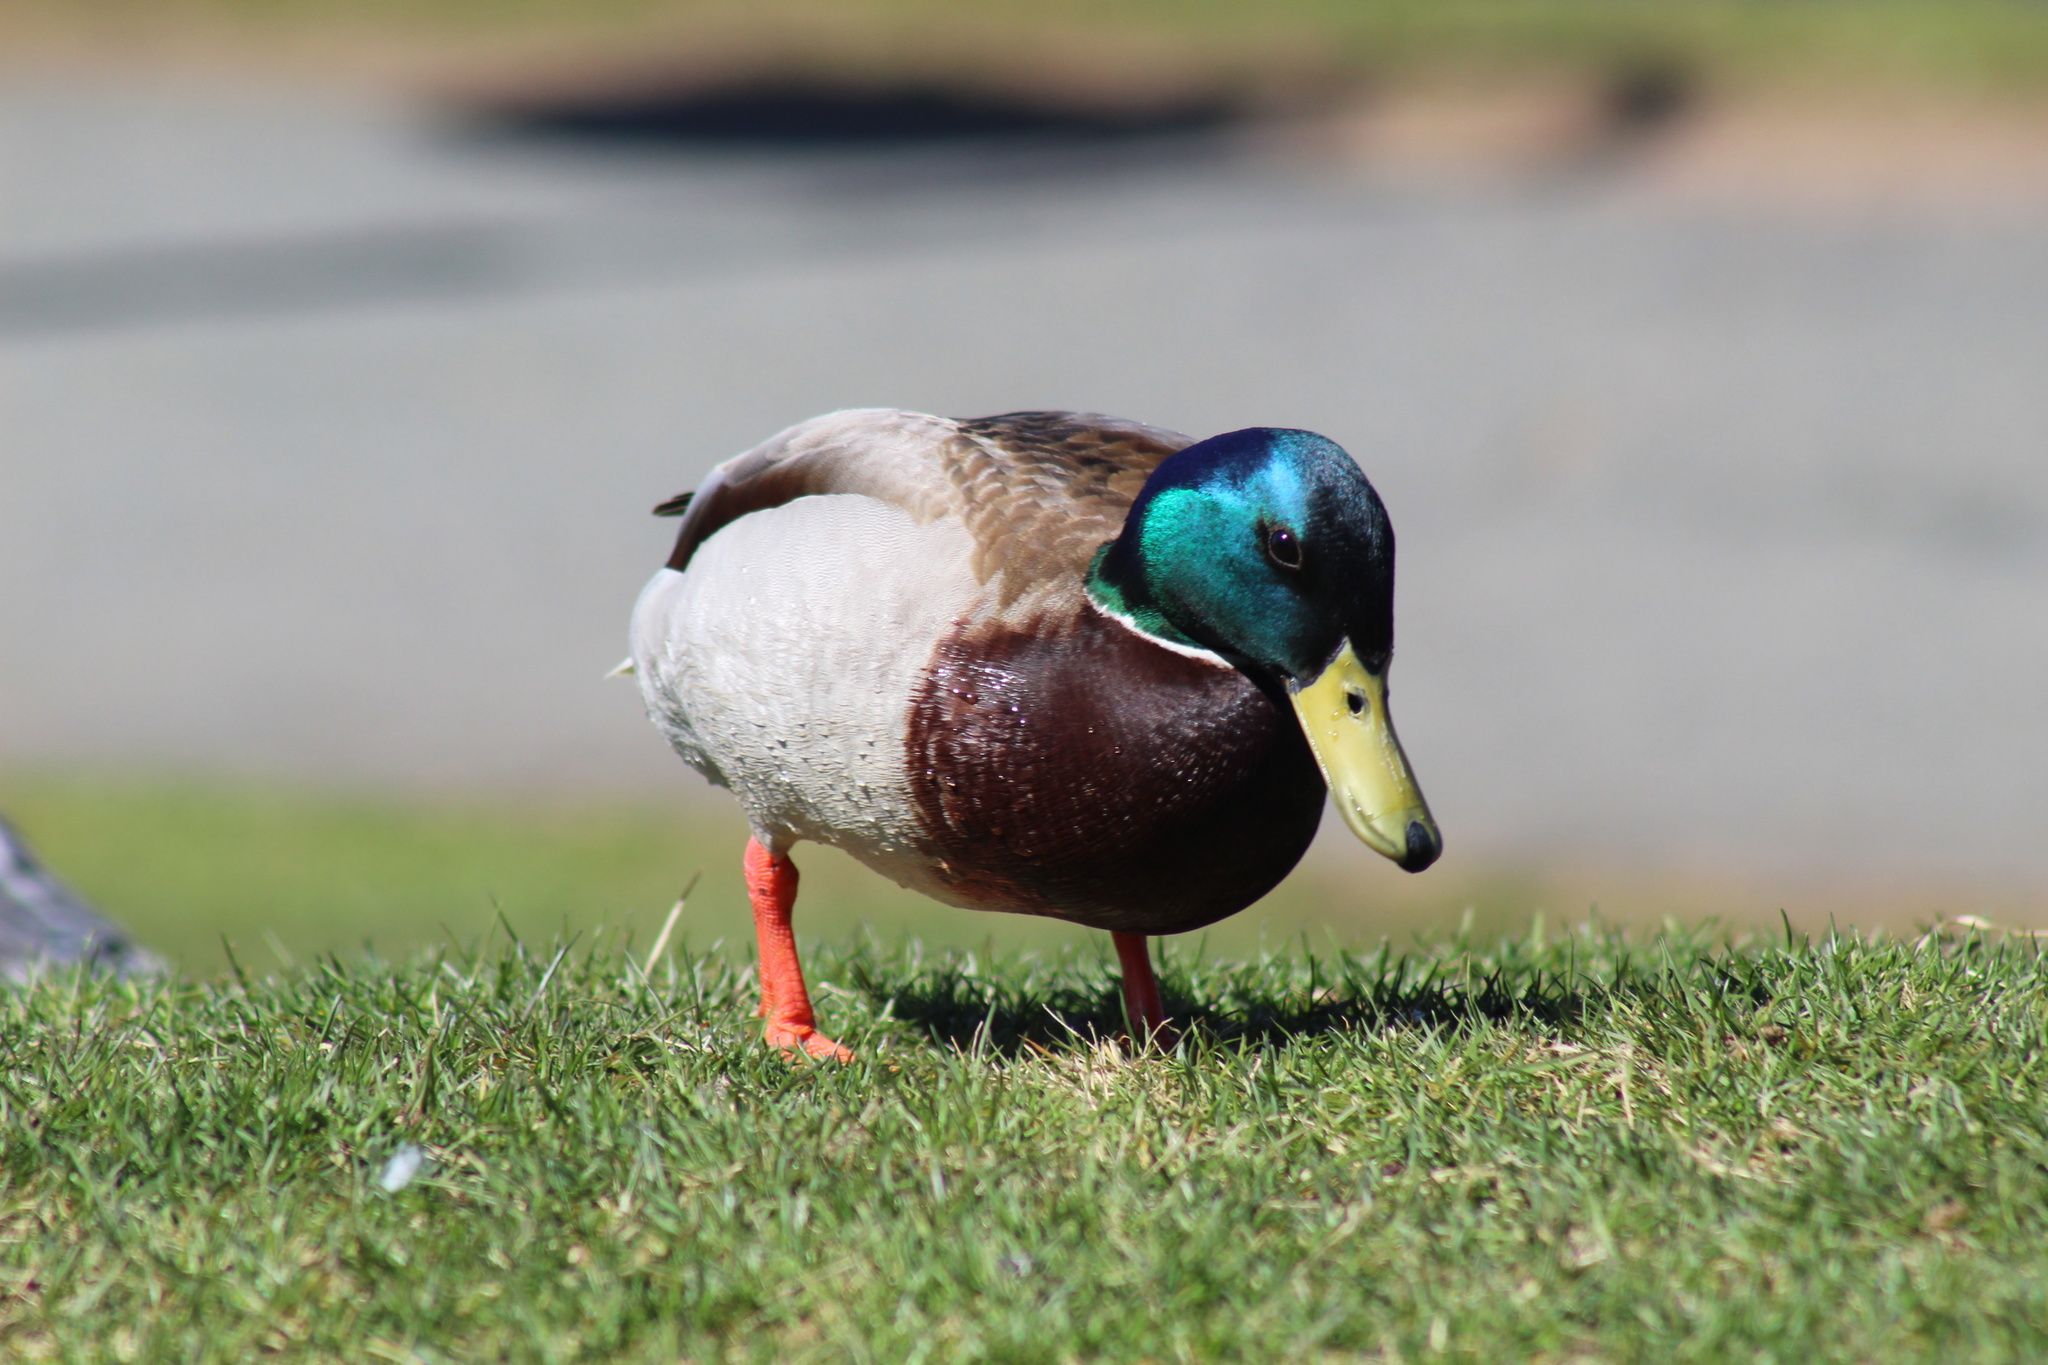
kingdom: Animalia
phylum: Chordata
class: Aves
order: Anseriformes
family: Anatidae
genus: Anas
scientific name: Anas platyrhynchos
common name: Mallard
